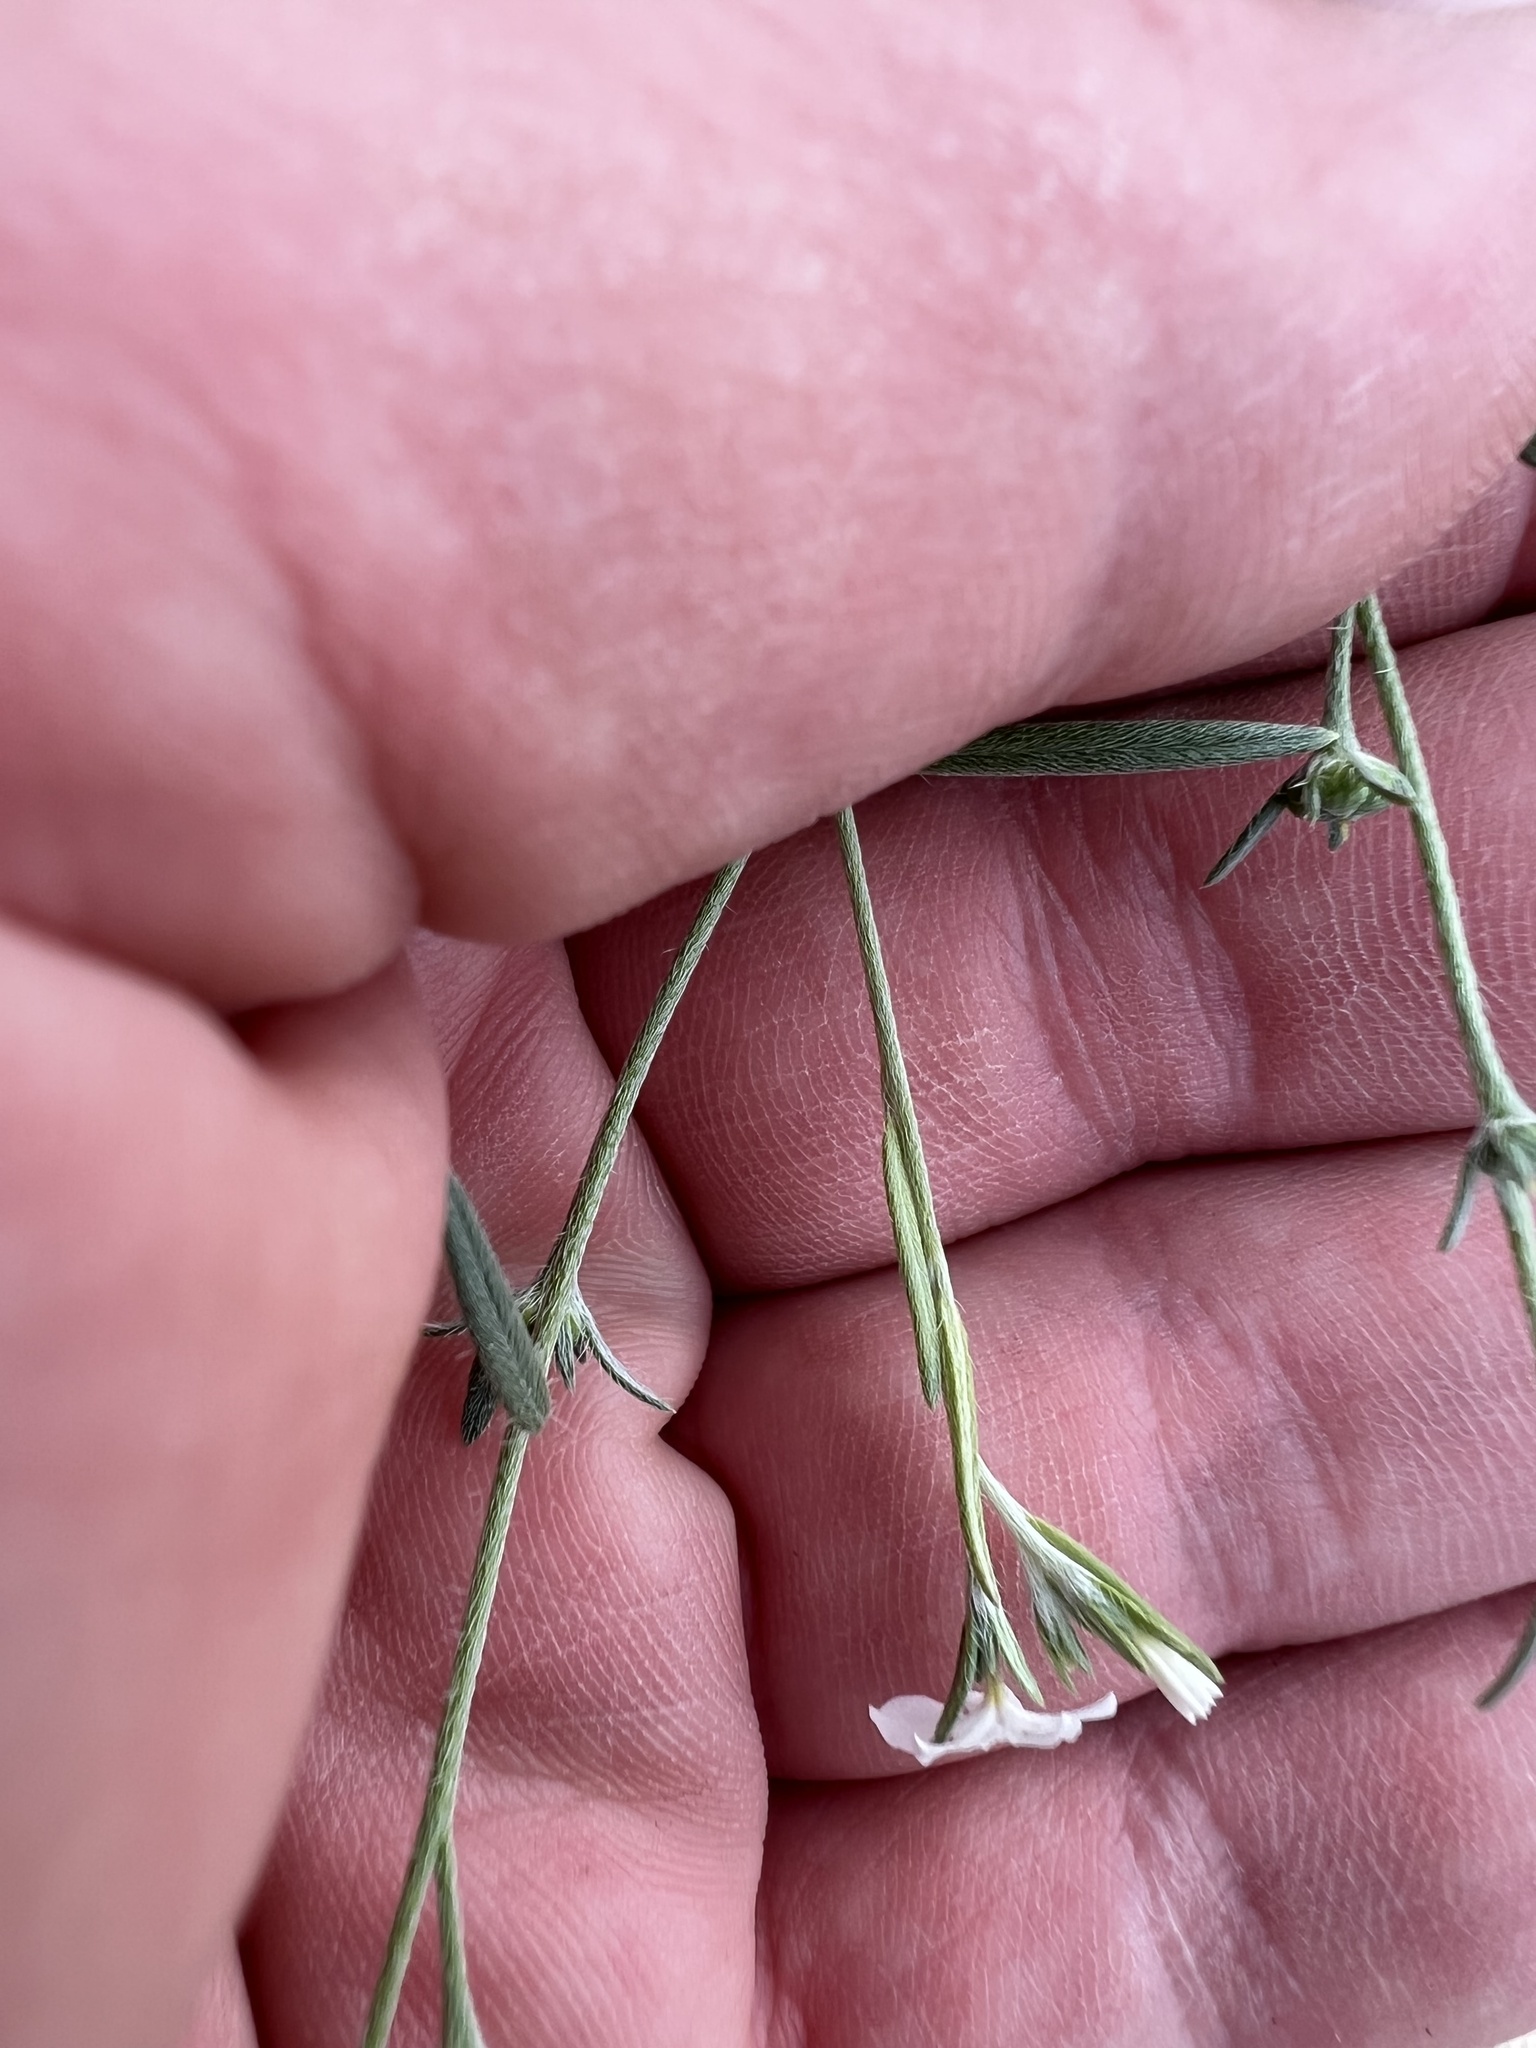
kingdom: Plantae
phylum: Tracheophyta
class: Magnoliopsida
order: Boraginales
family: Heliotropiaceae
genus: Euploca
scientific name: Euploca tenella
